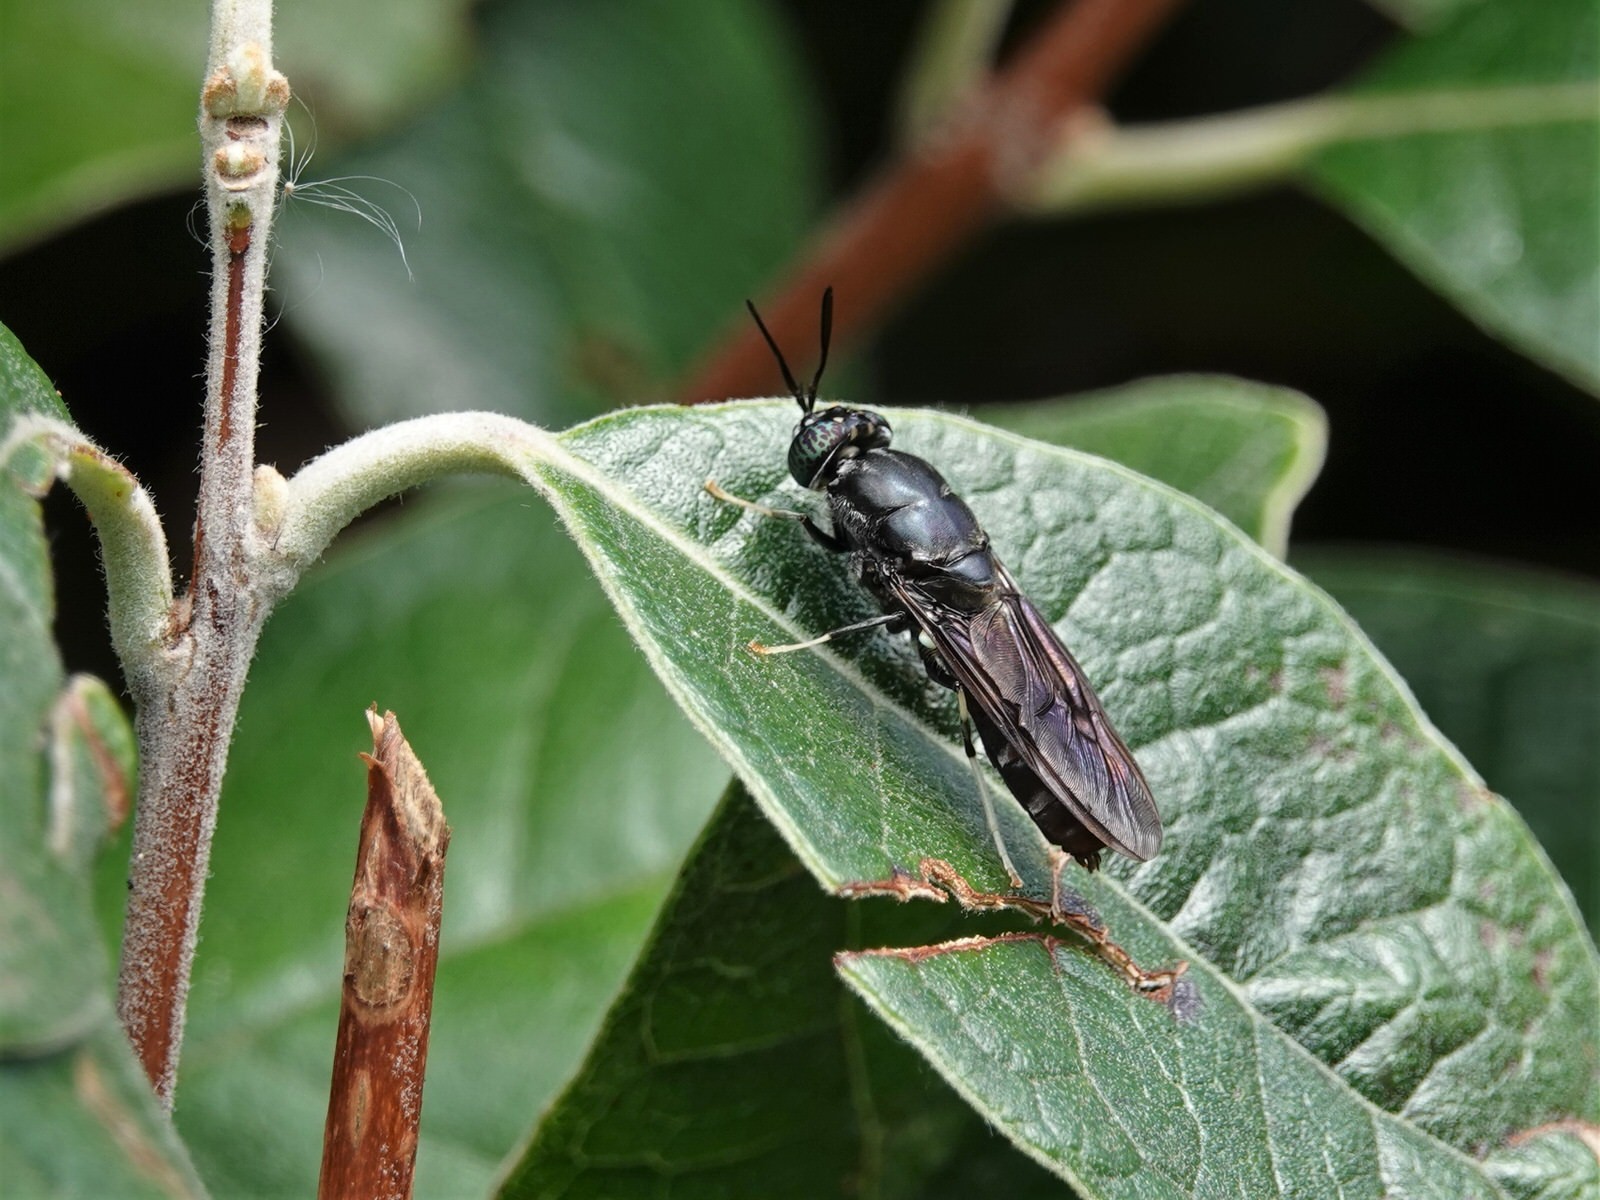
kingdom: Animalia
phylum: Arthropoda
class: Insecta
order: Diptera
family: Stratiomyidae
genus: Hermetia
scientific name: Hermetia illucens
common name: Black soldier fly
